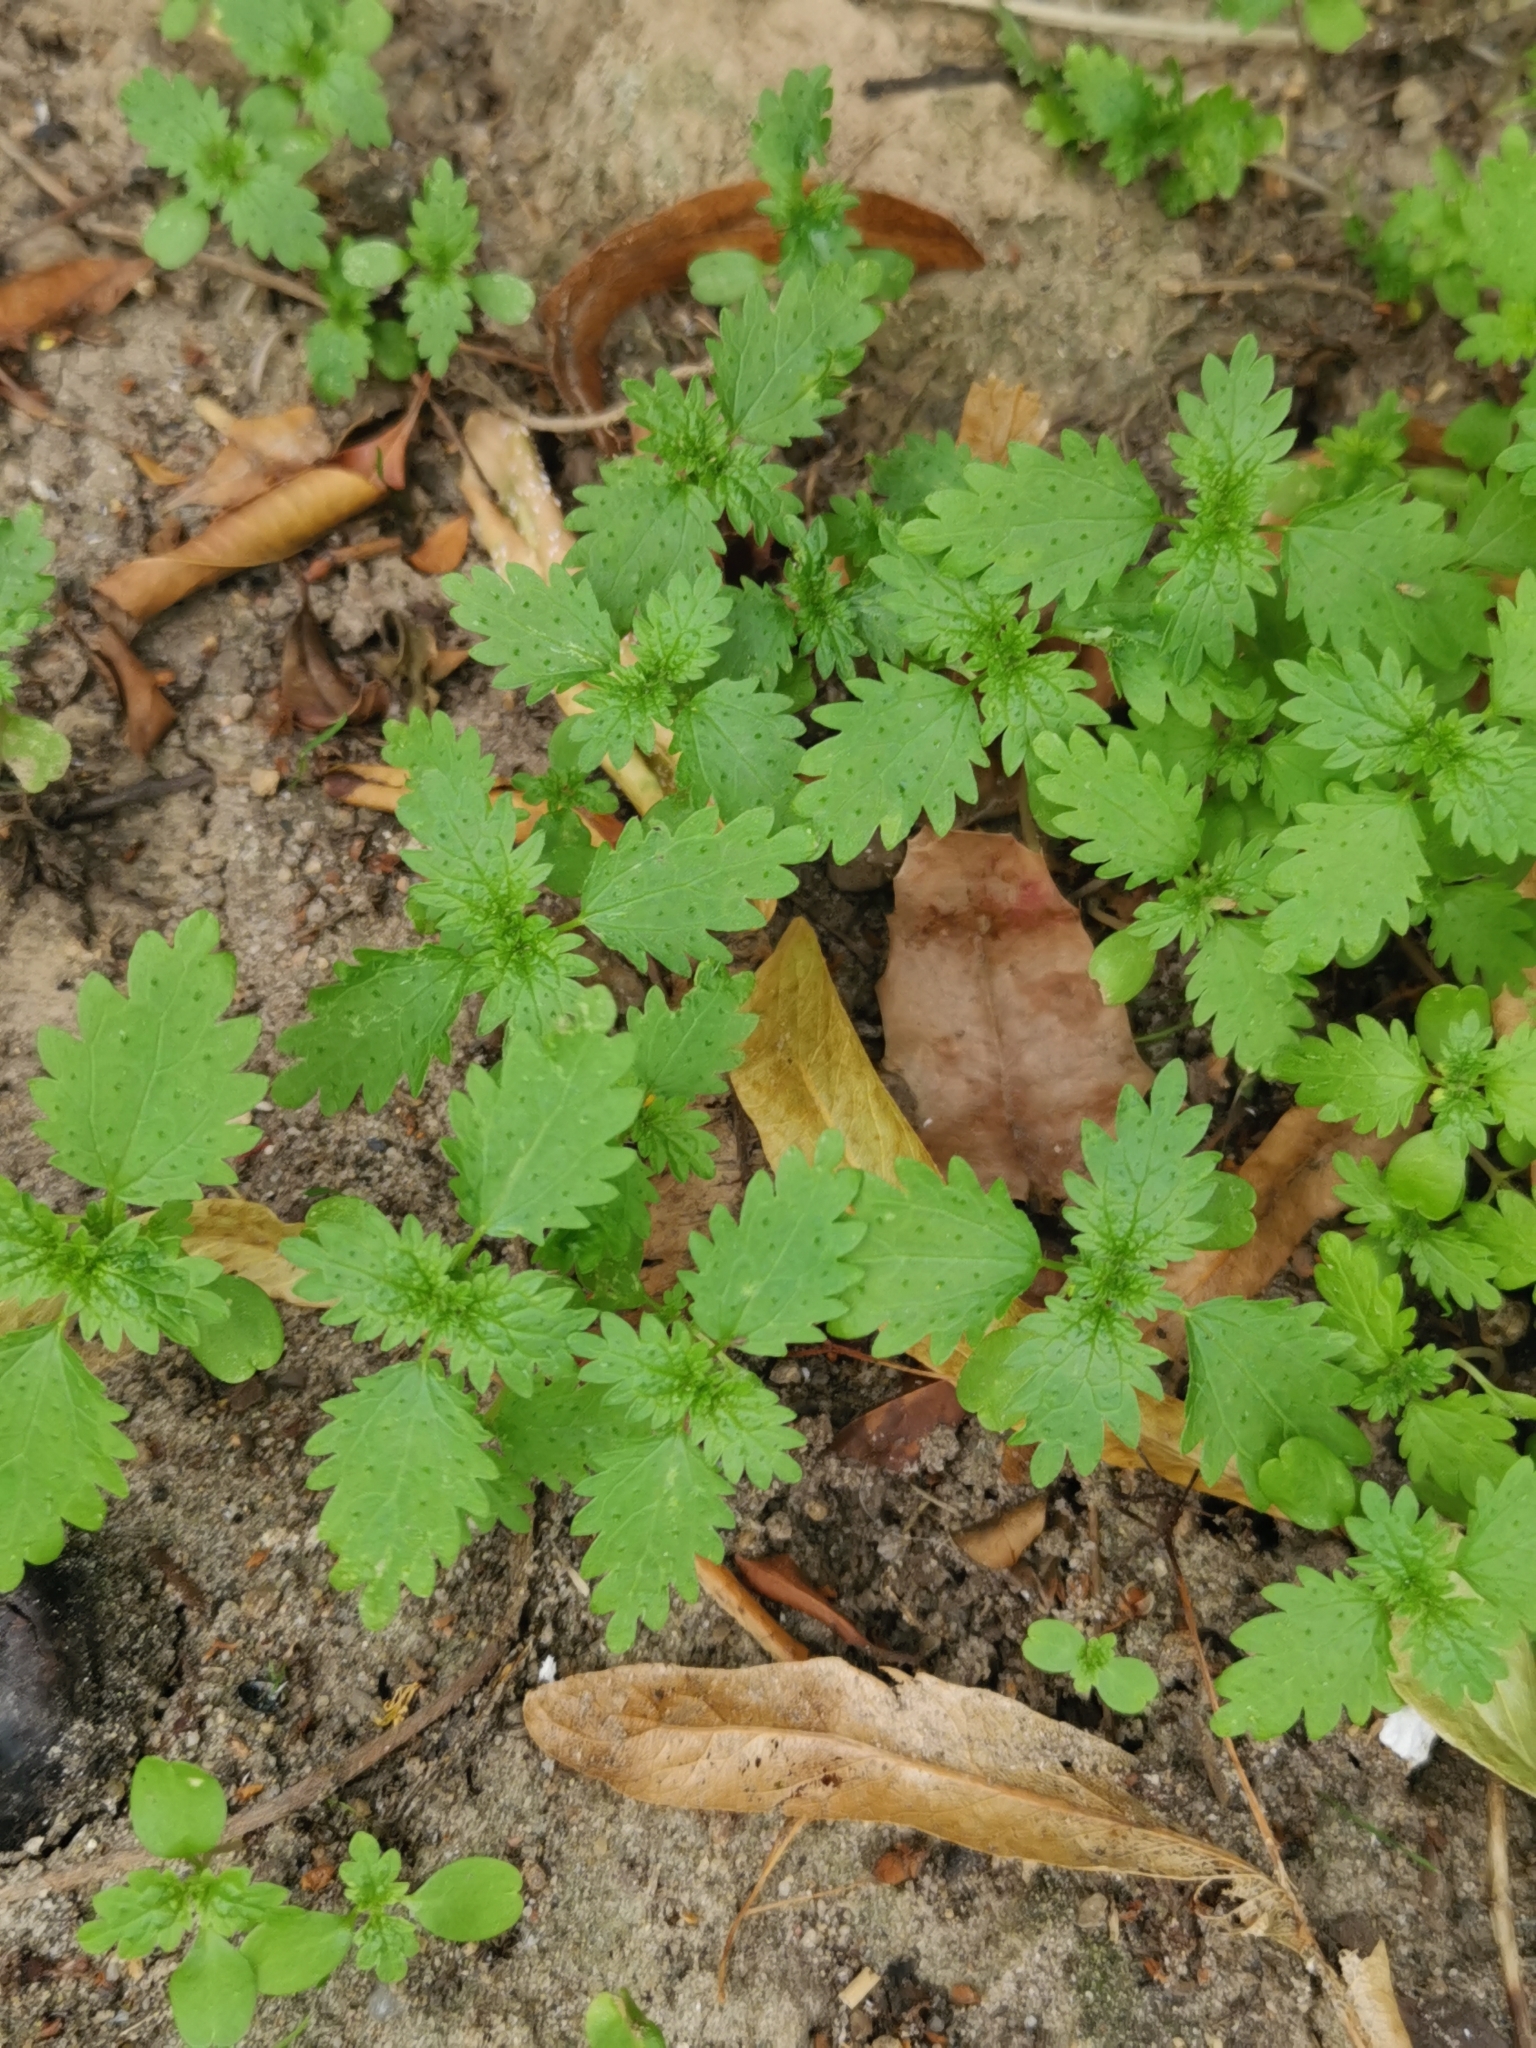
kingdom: Plantae
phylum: Tracheophyta
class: Magnoliopsida
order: Rosales
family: Urticaceae
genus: Urtica
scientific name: Urtica urens
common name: Dwarf nettle
